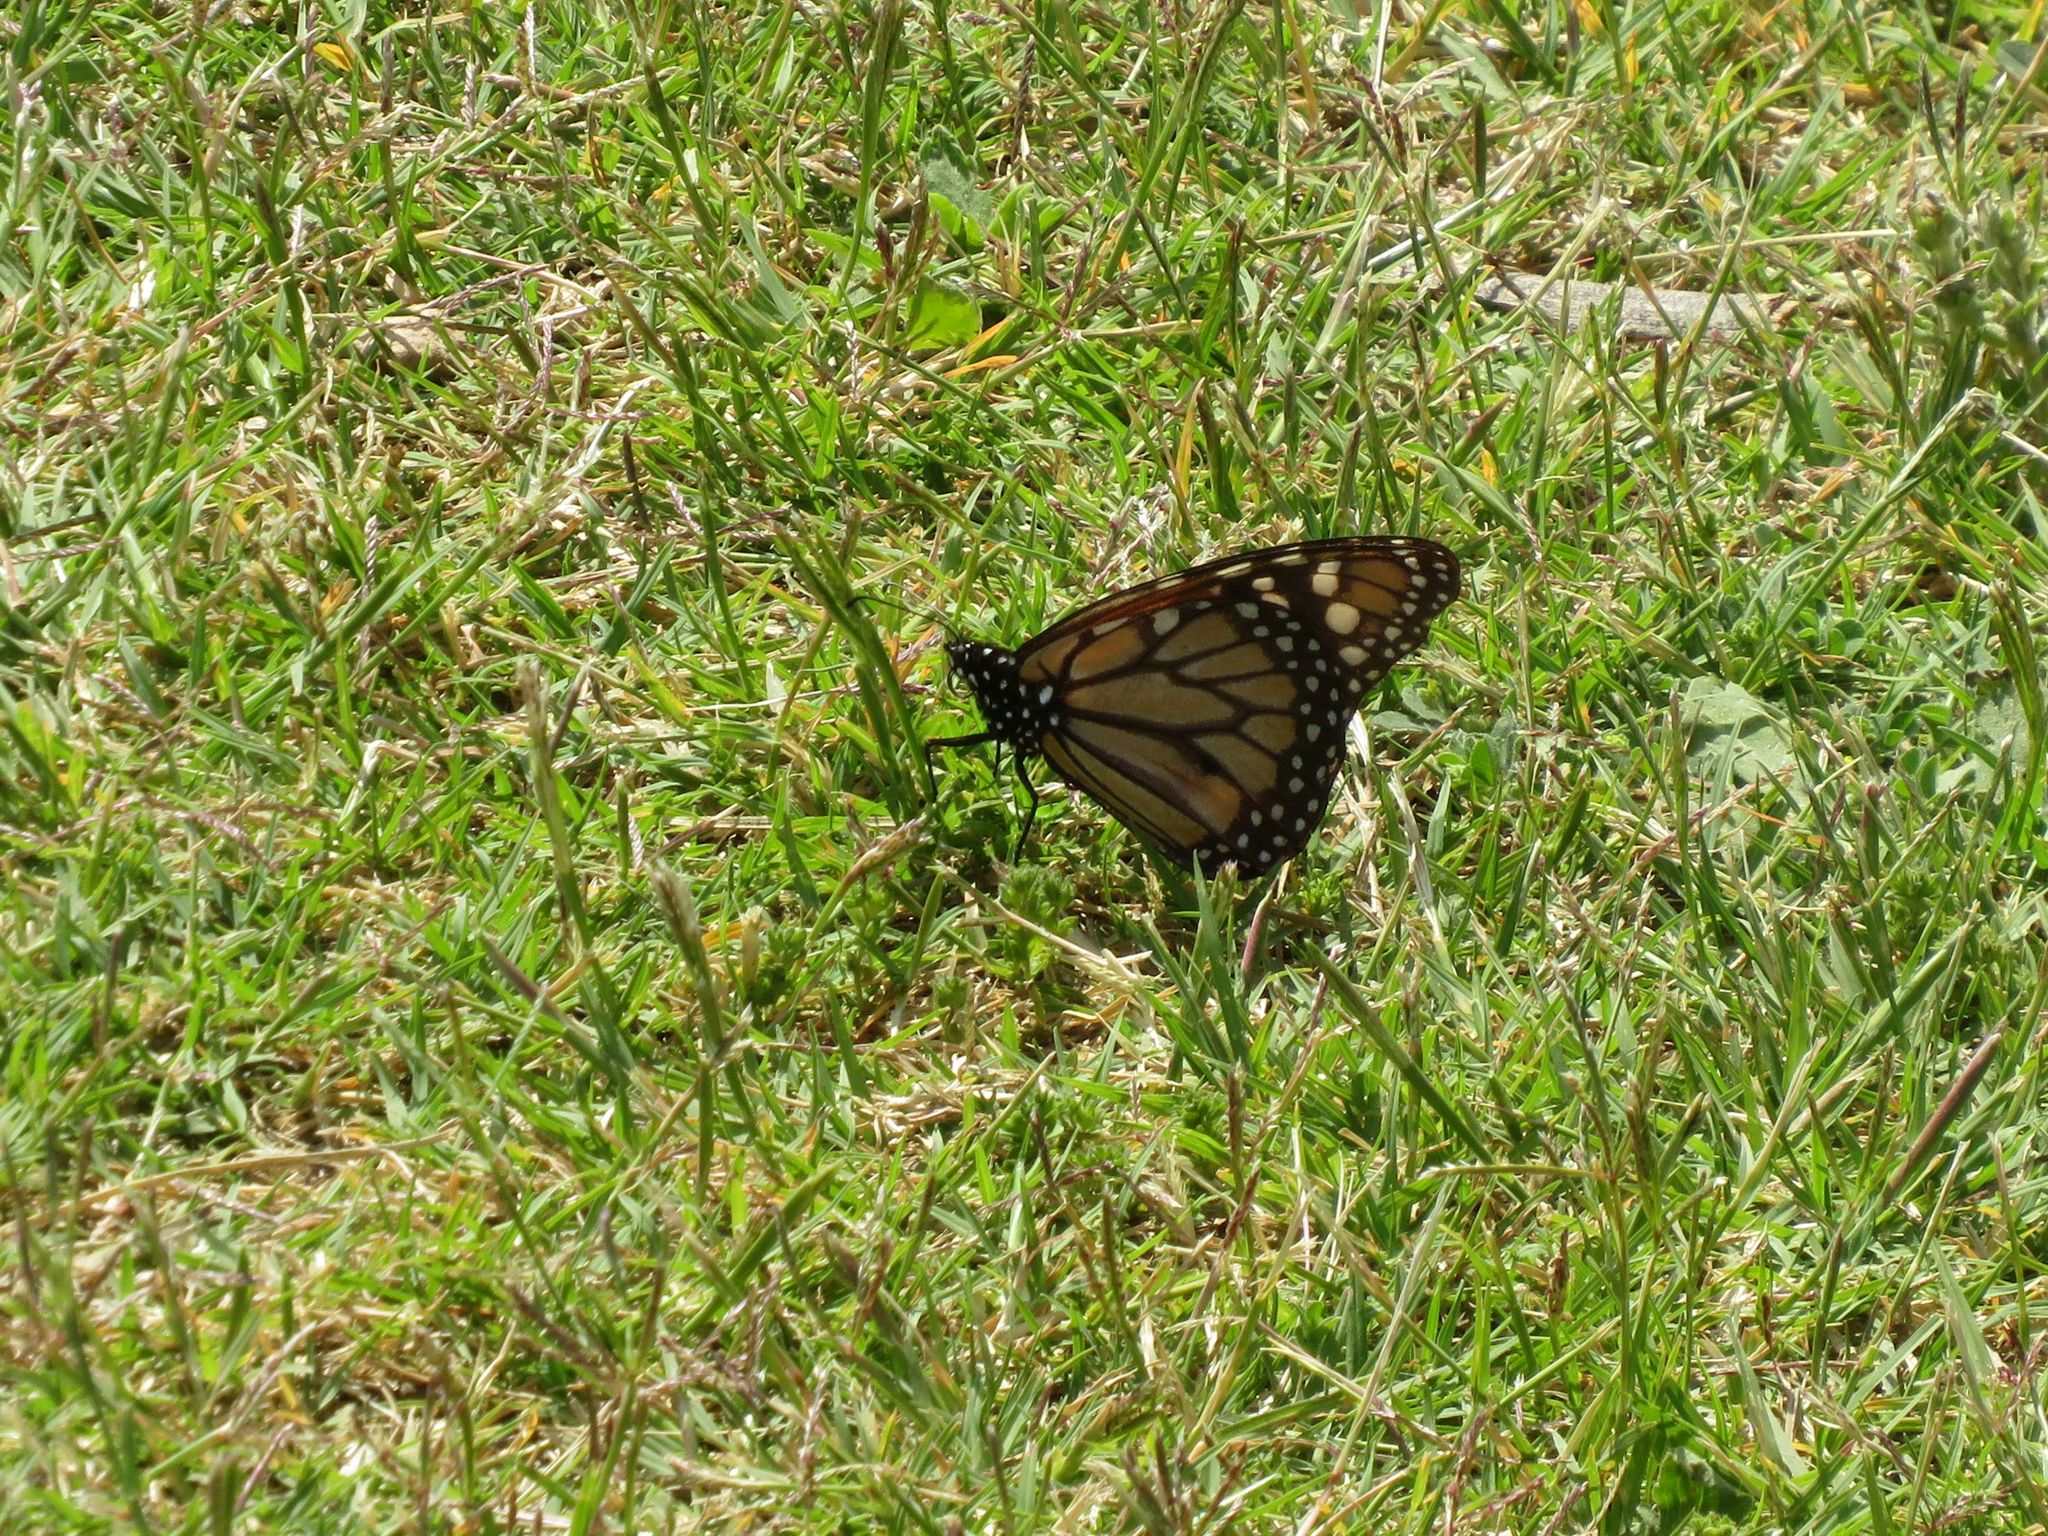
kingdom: Animalia
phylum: Arthropoda
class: Insecta
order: Lepidoptera
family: Nymphalidae
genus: Danaus
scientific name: Danaus erippus
